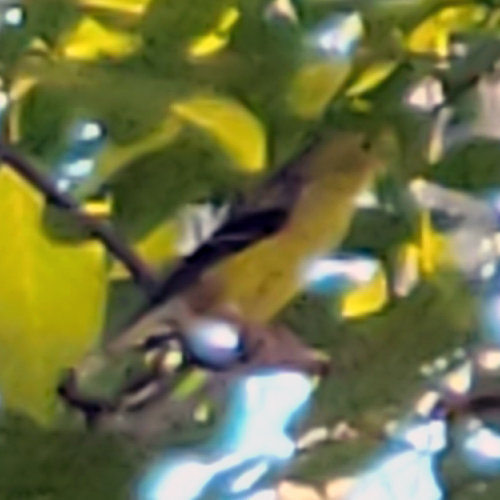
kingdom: Animalia
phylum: Chordata
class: Aves
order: Passeriformes
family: Fringillidae
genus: Spinus
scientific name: Spinus tristis
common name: American goldfinch
